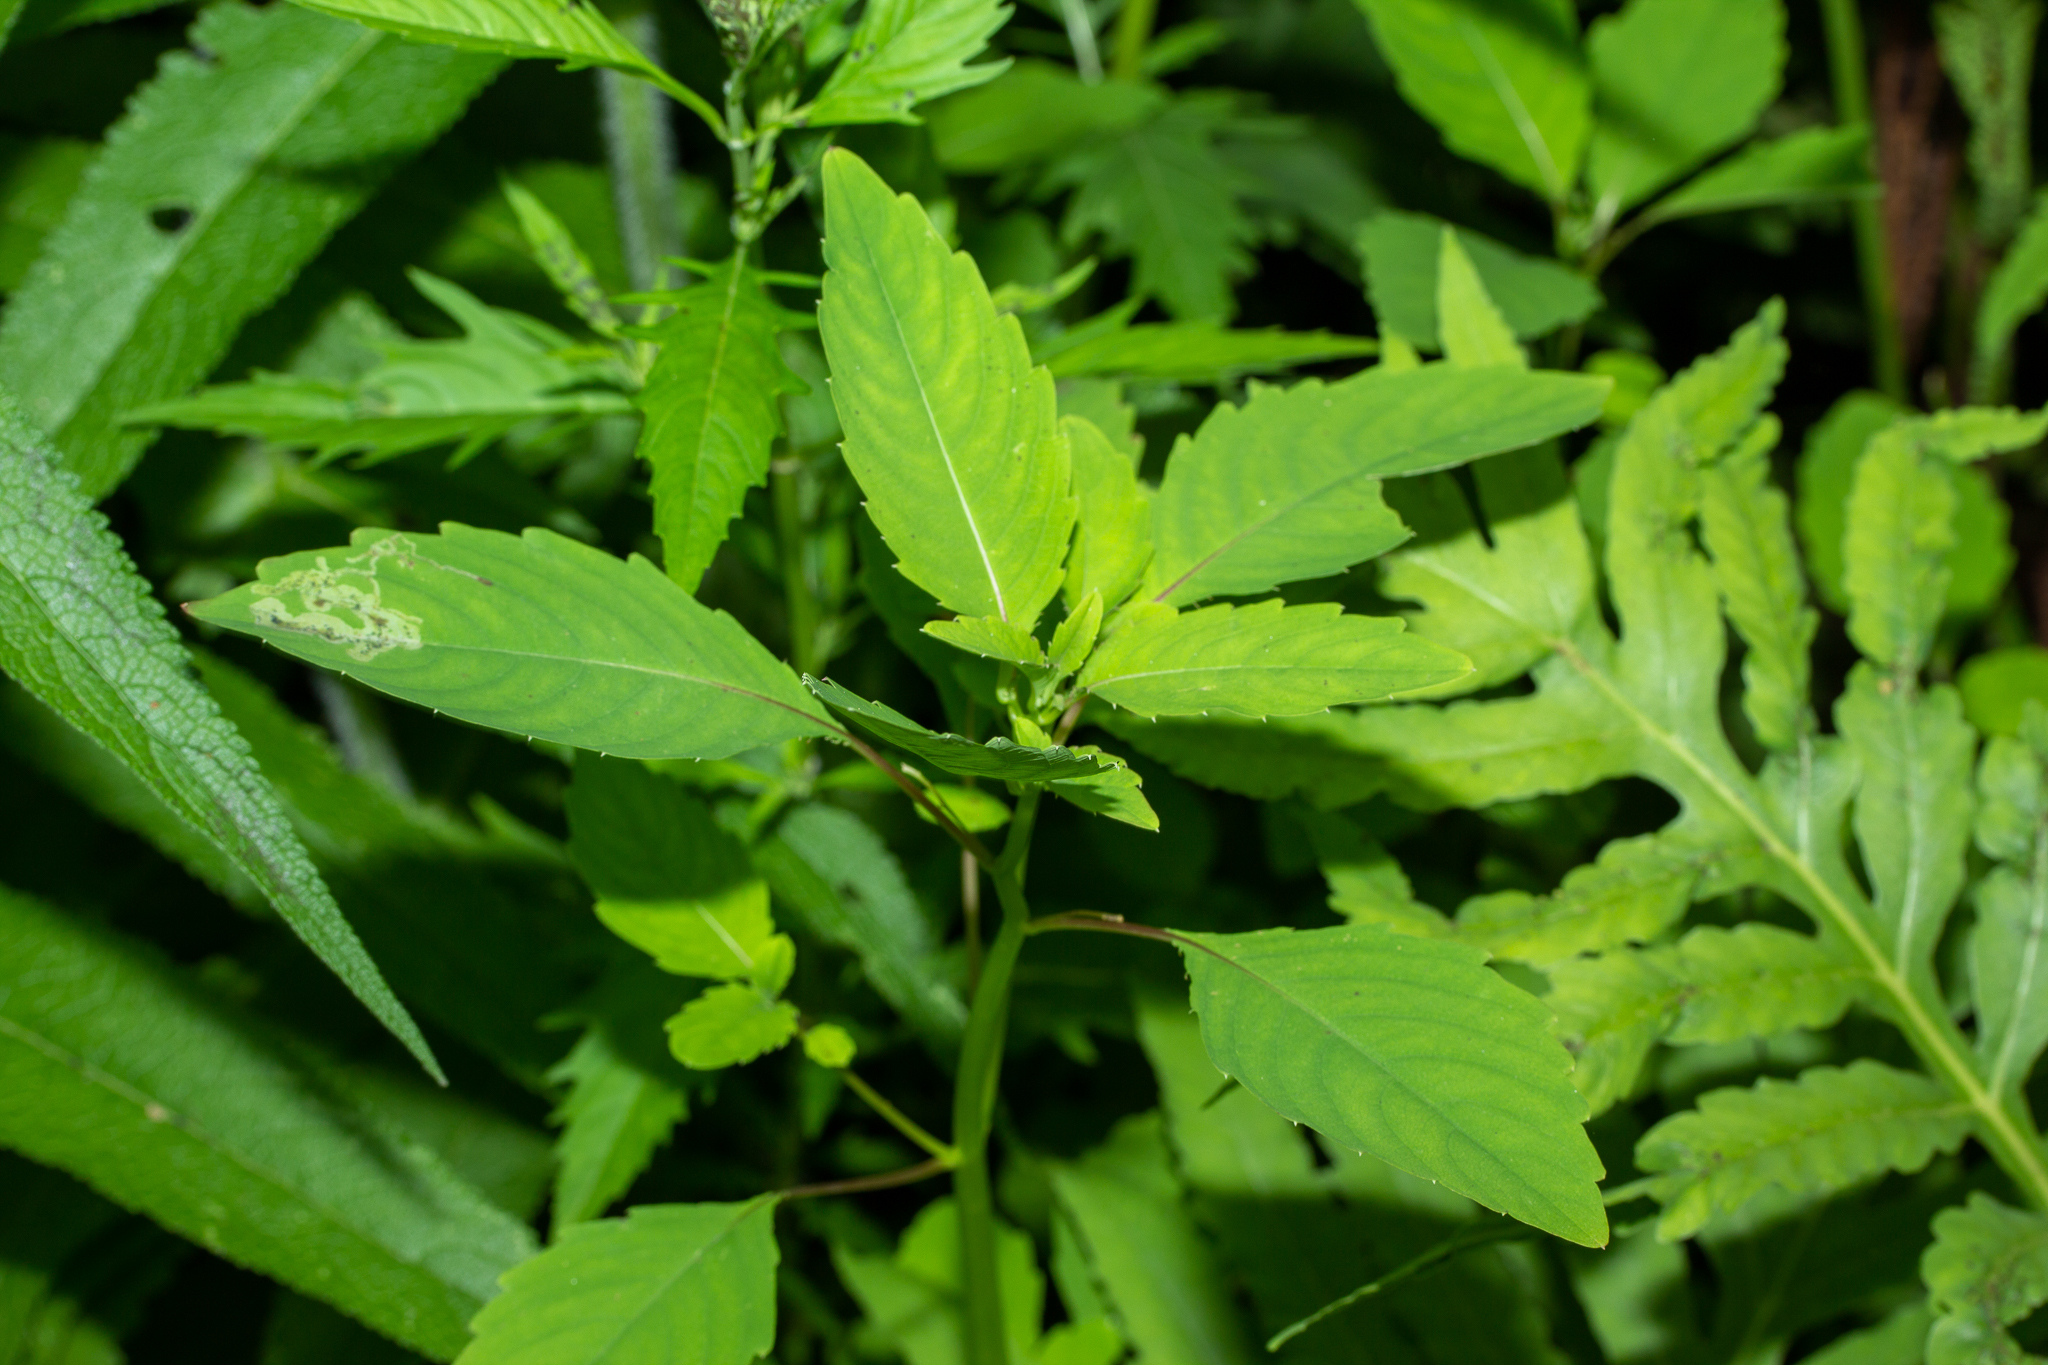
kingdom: Plantae
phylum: Tracheophyta
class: Magnoliopsida
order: Ericales
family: Balsaminaceae
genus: Impatiens
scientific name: Impatiens capensis
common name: Orange balsam
